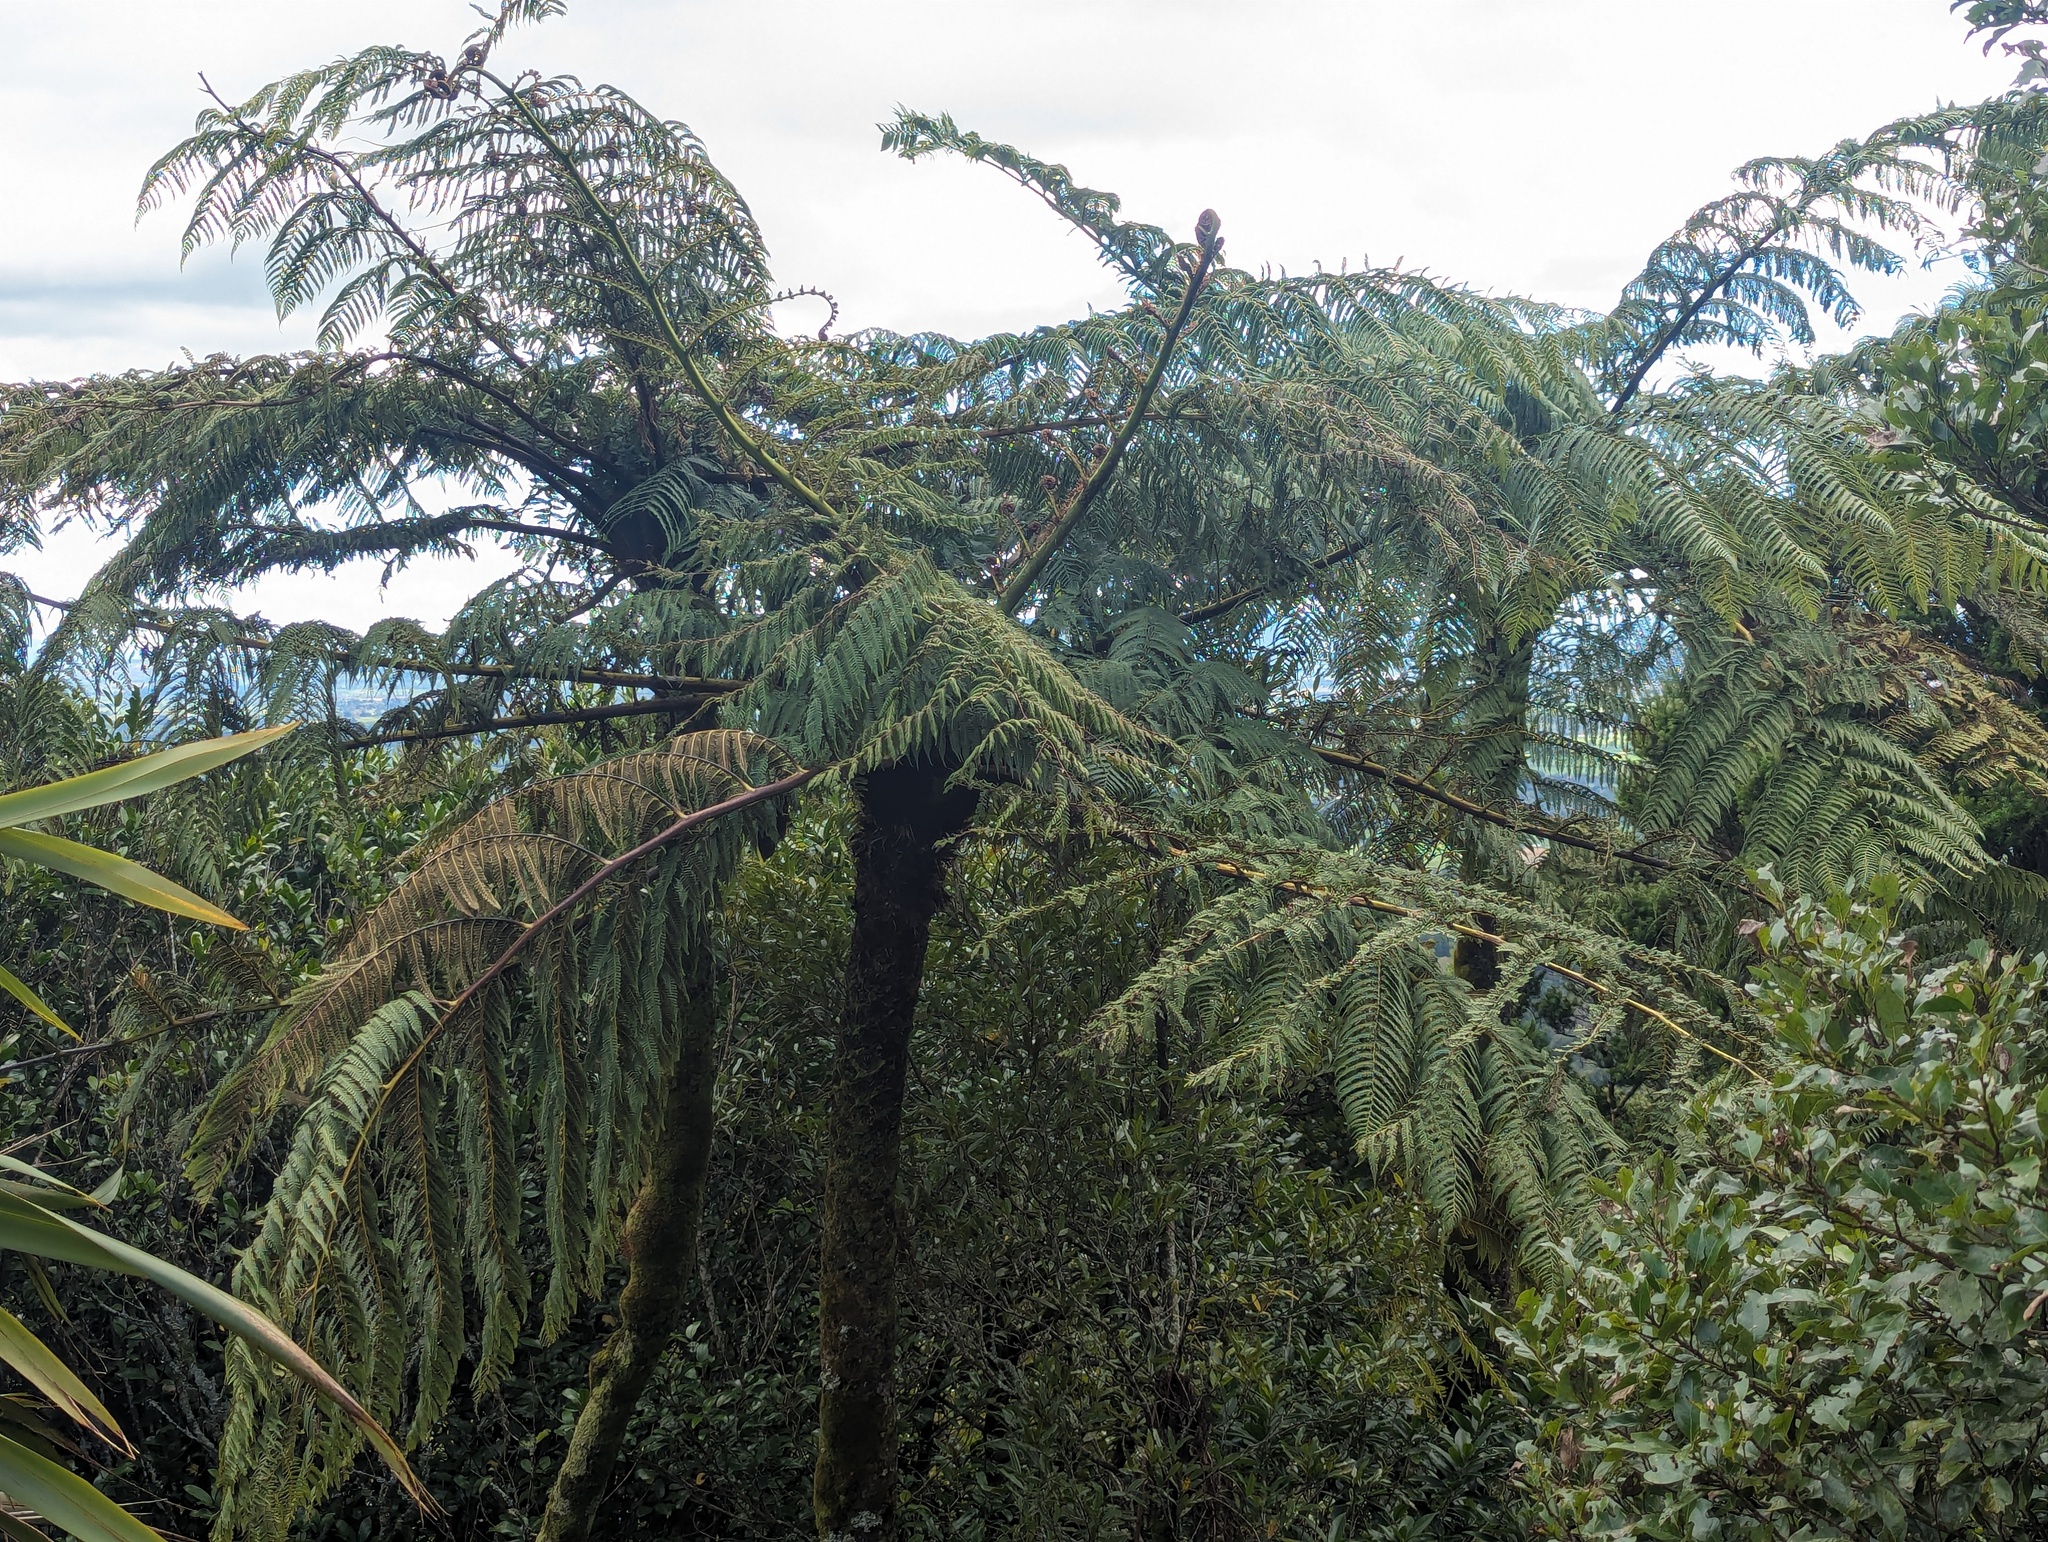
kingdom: Plantae
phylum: Tracheophyta
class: Polypodiopsida
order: Cyatheales
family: Cyatheaceae
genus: Sphaeropteris
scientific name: Sphaeropteris medullaris
